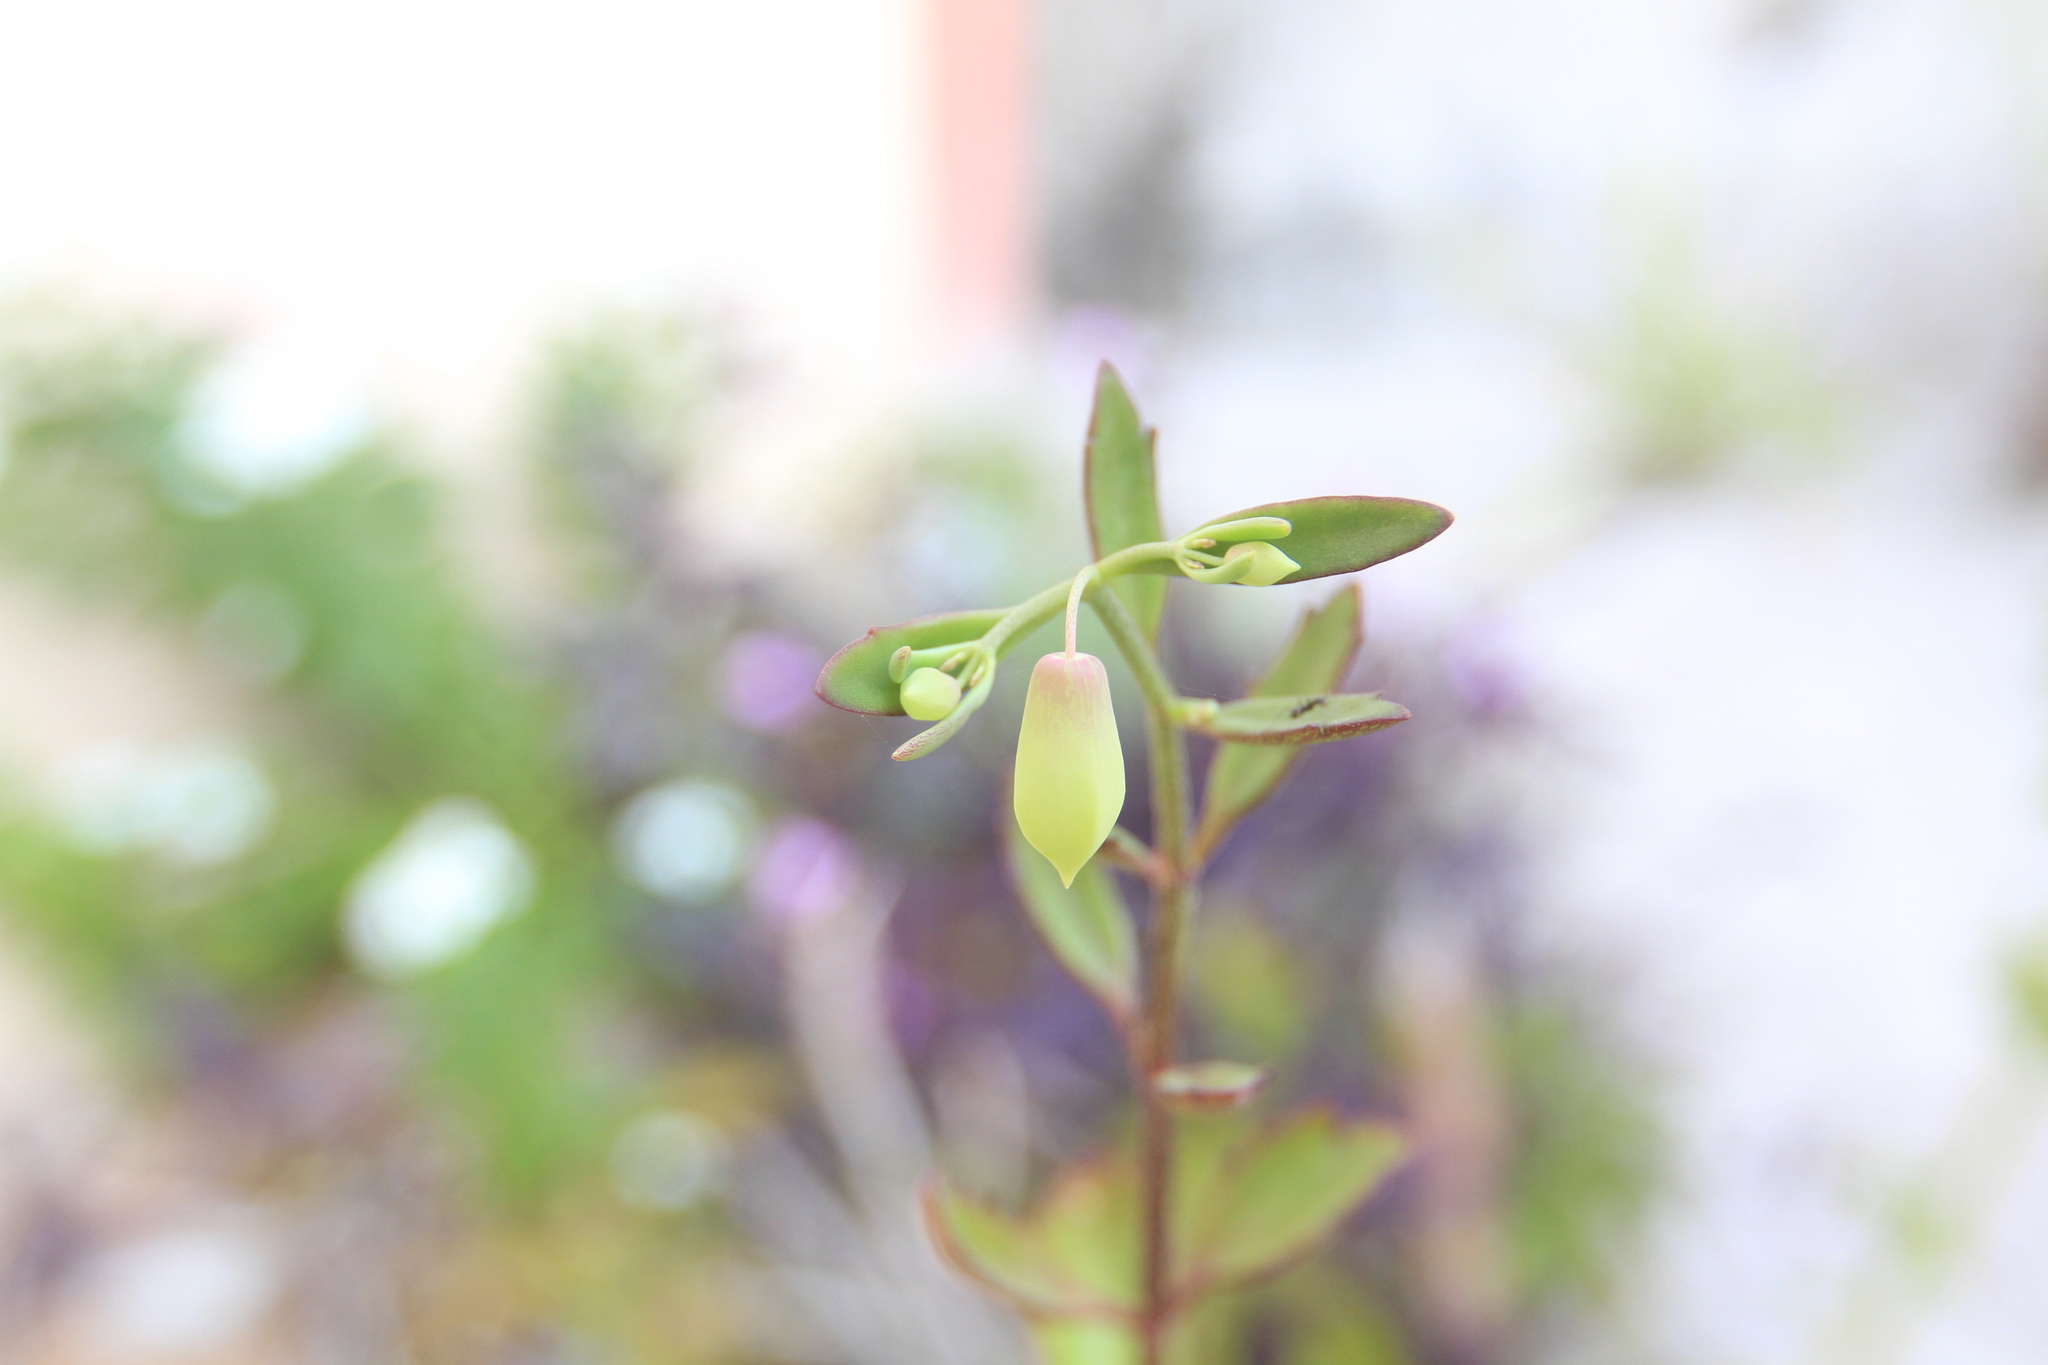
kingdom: Plantae
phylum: Tracheophyta
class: Magnoliopsida
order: Saxifragales
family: Crassulaceae
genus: Kalanchoe
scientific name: Kalanchoe pinnata
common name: Cathedral bells
